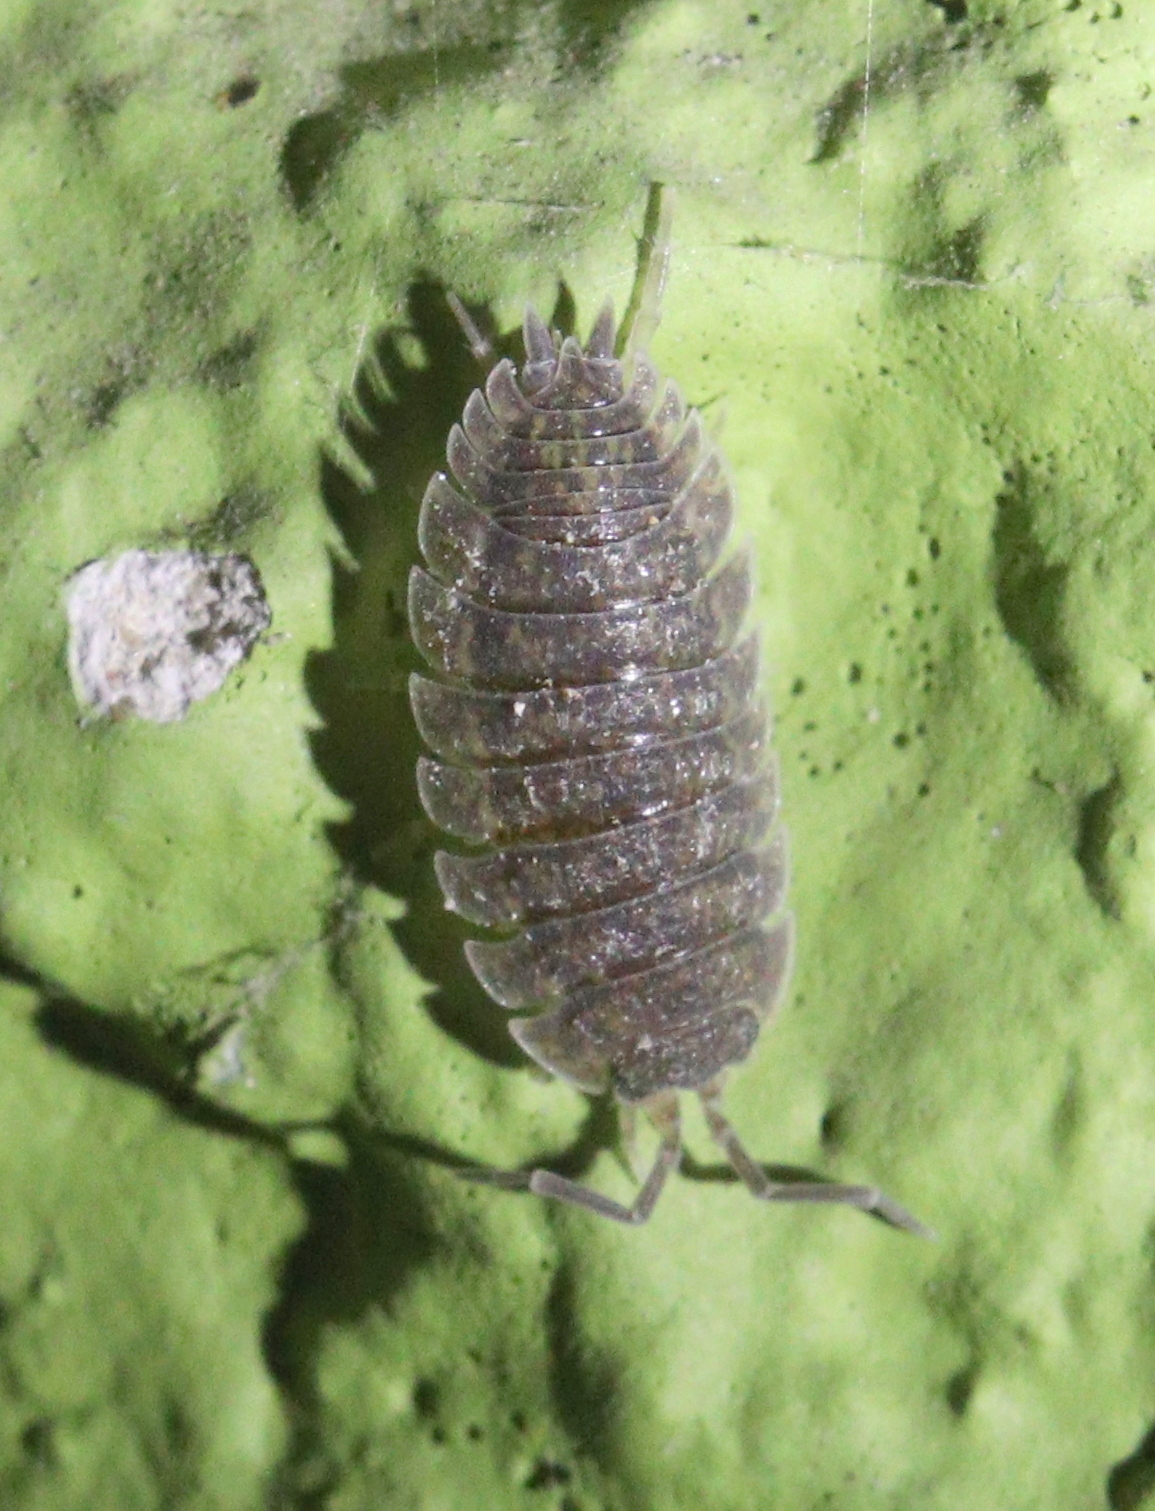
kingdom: Animalia
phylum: Arthropoda
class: Malacostraca
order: Isopoda
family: Porcellionidae
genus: Porcellio
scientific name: Porcellio scaber
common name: Common rough woodlouse
